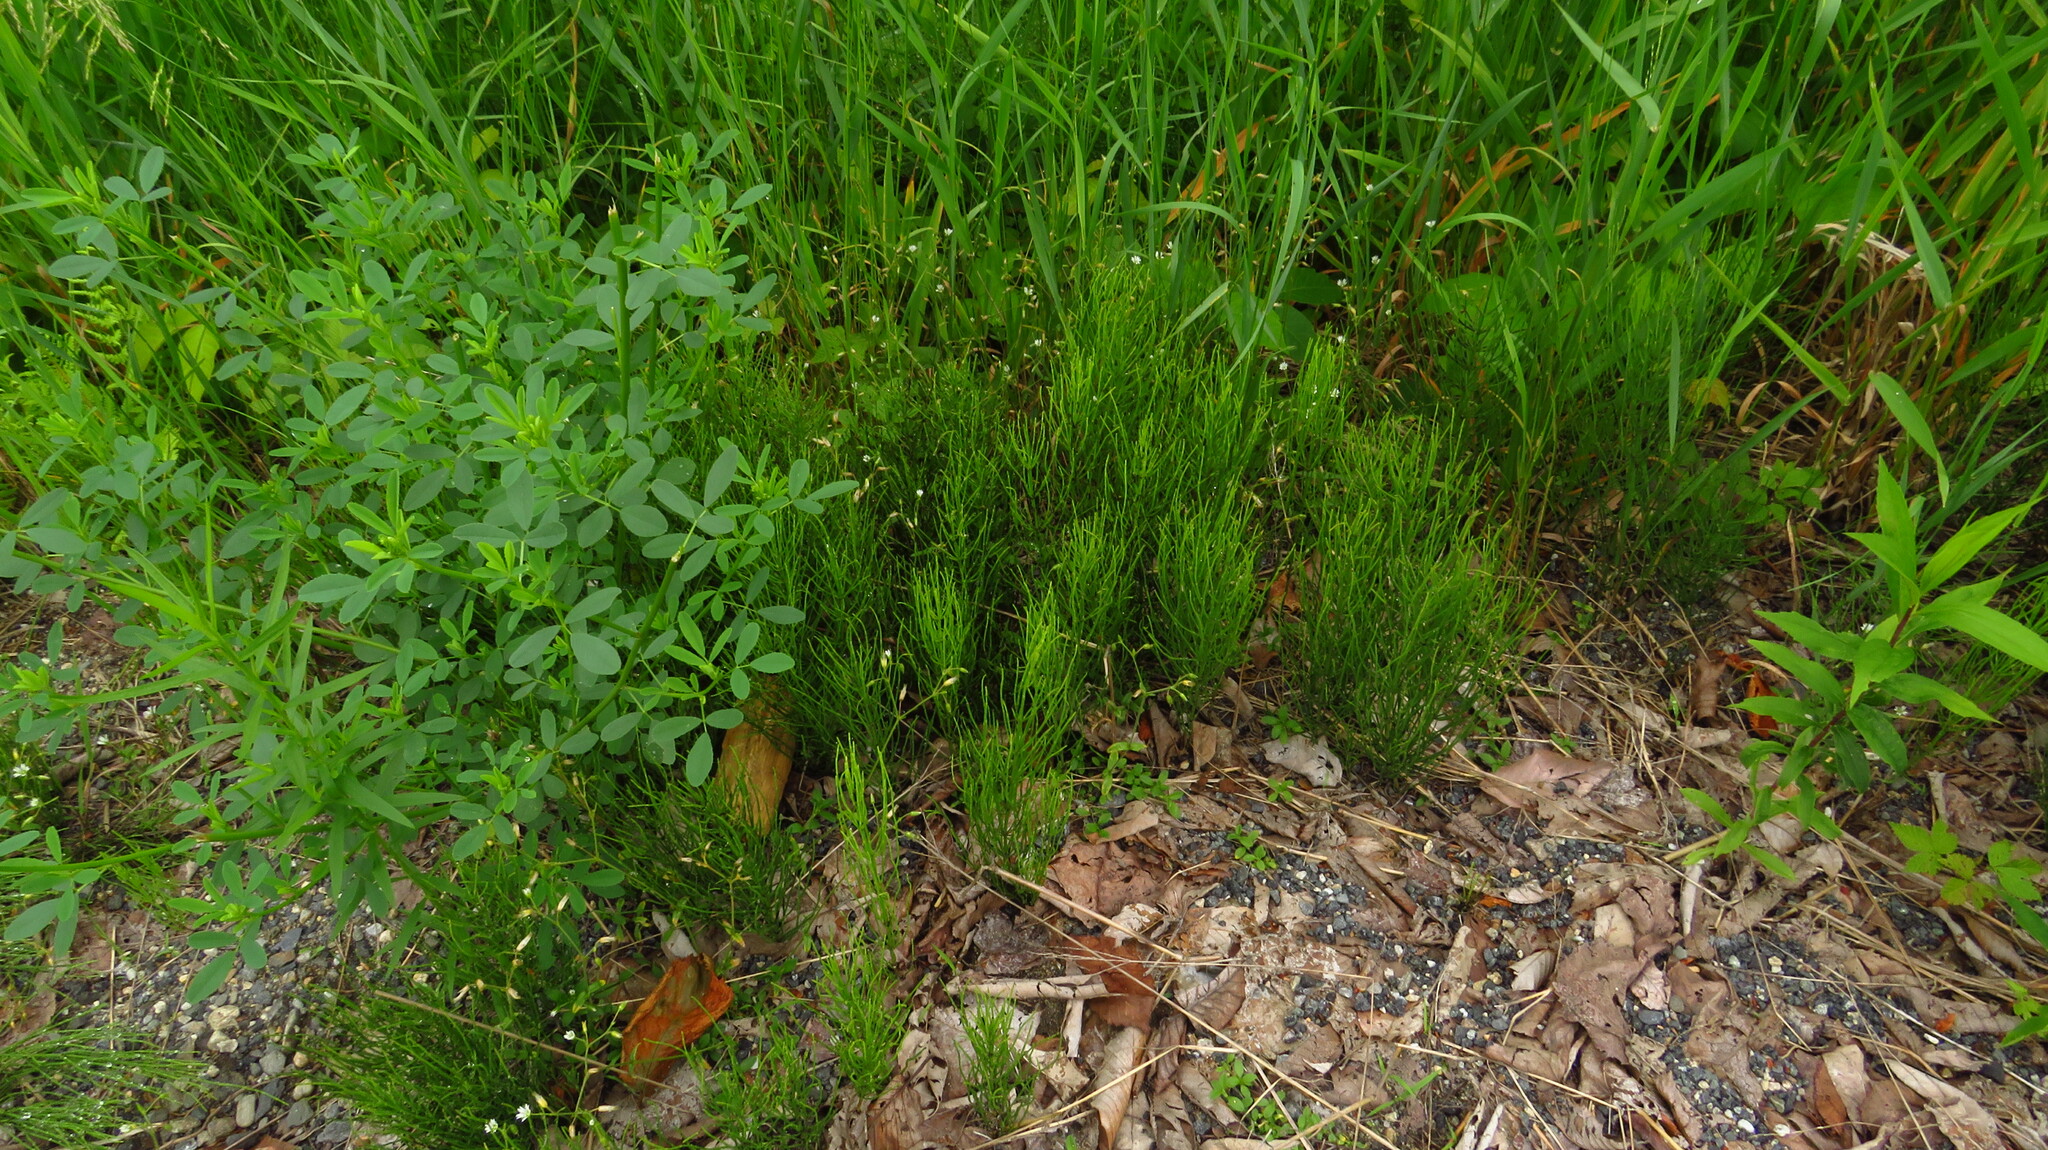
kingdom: Plantae
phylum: Tracheophyta
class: Polypodiopsida
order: Equisetales
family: Equisetaceae
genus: Equisetum
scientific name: Equisetum arvense
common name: Field horsetail
